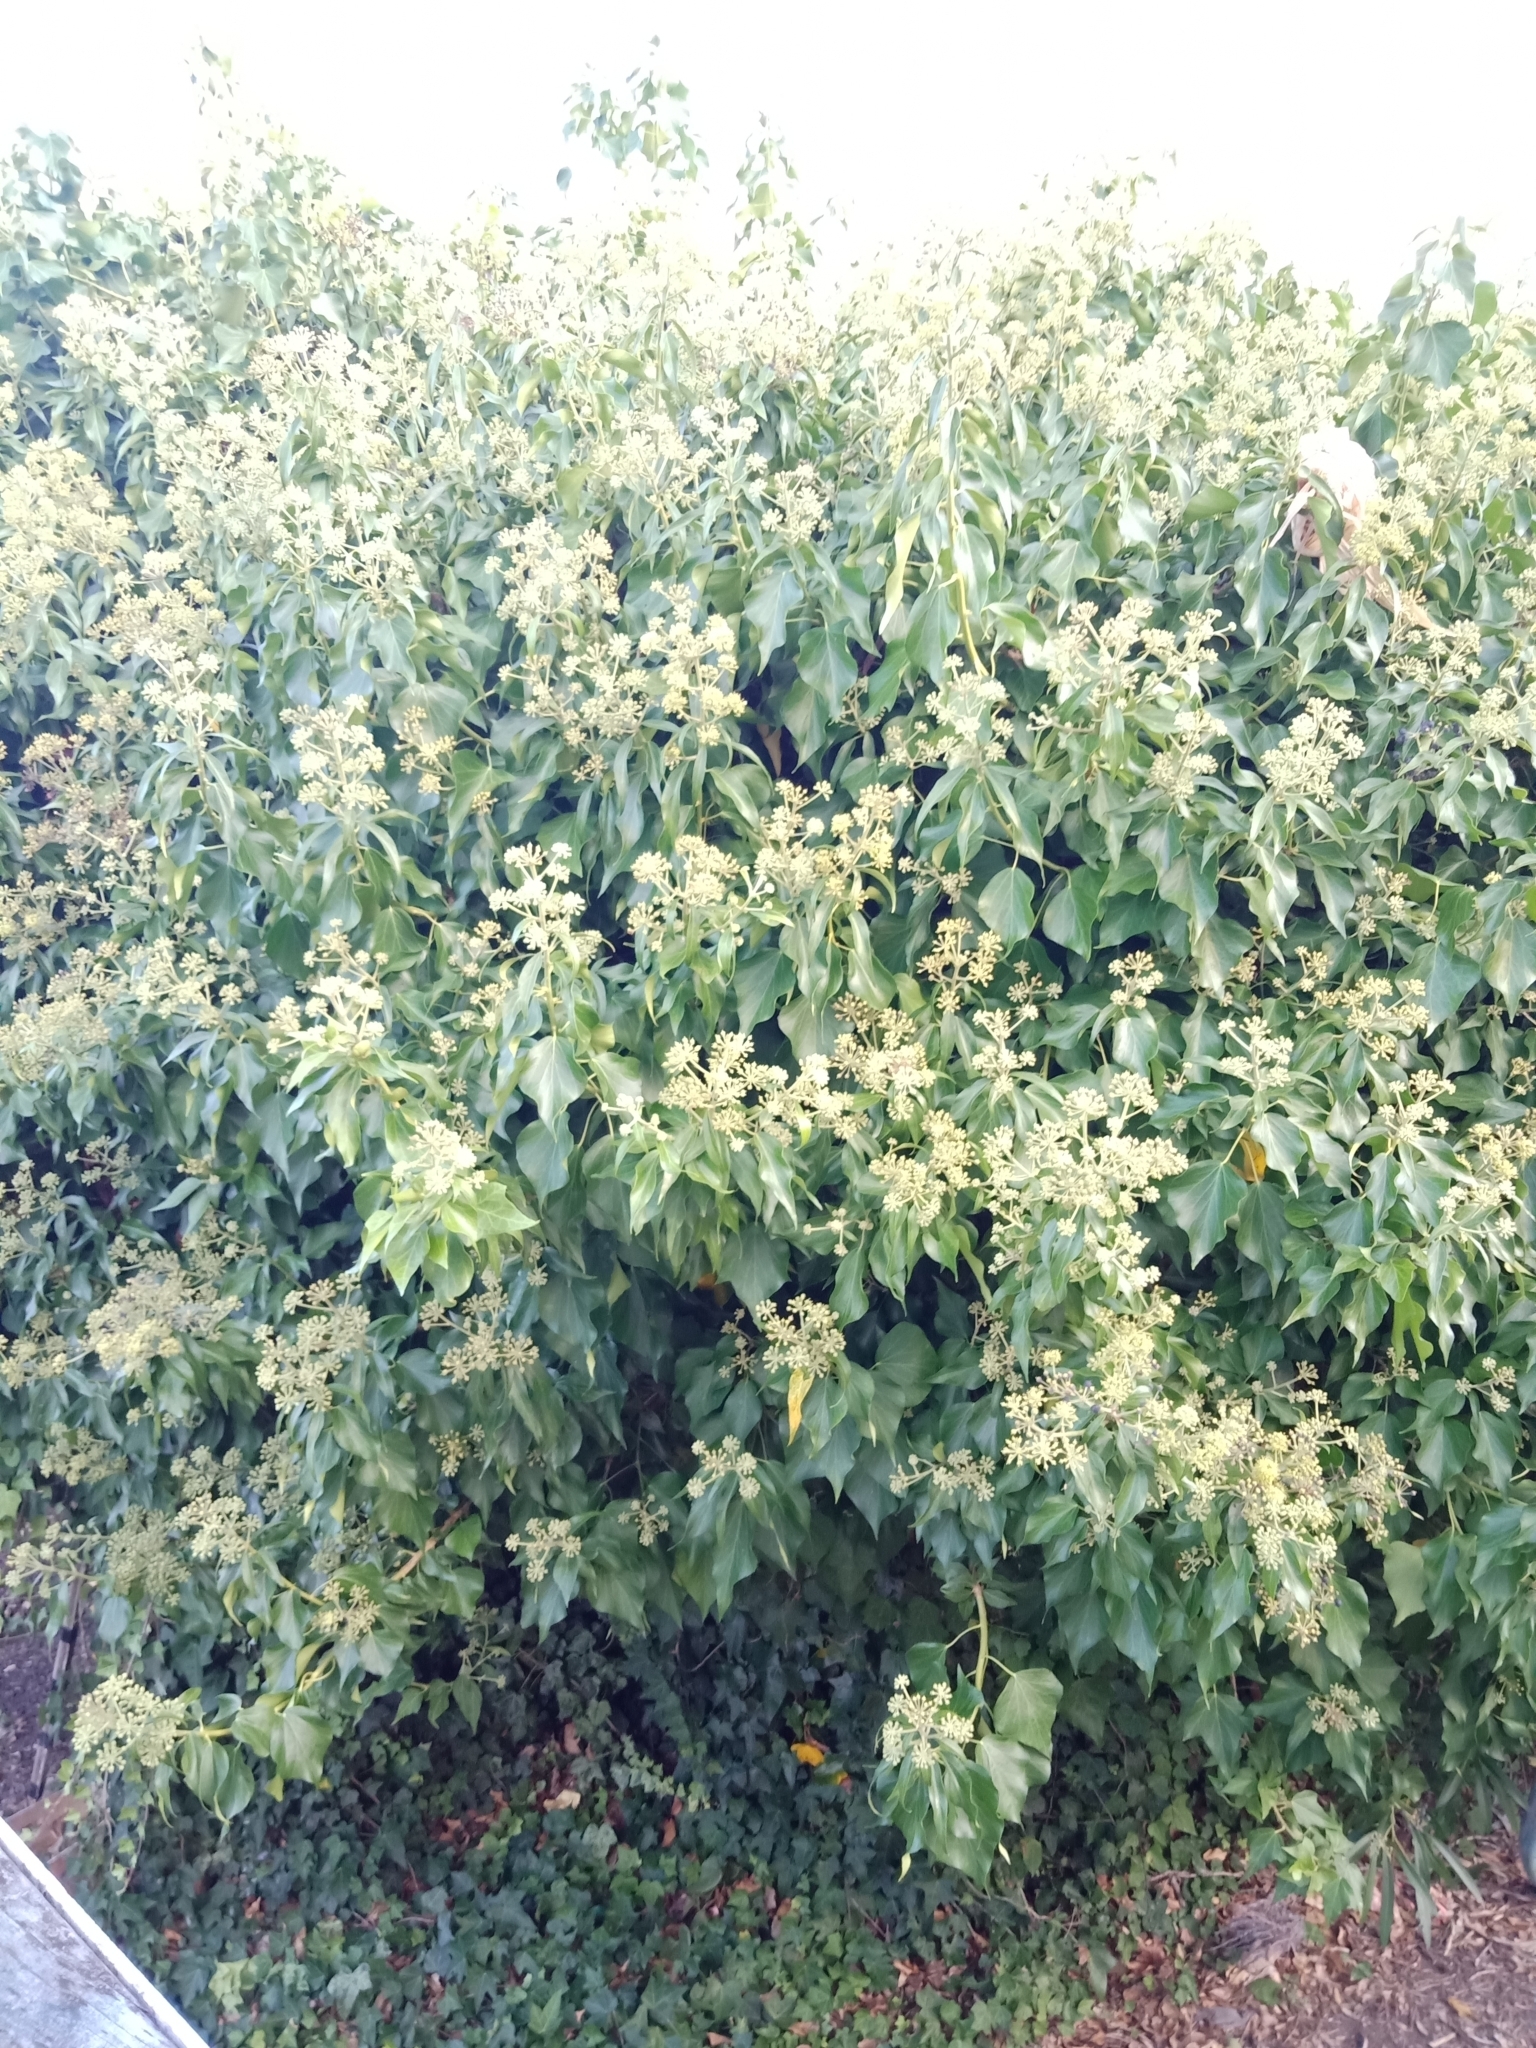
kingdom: Plantae
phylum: Tracheophyta
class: Magnoliopsida
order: Apiales
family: Araliaceae
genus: Hedera
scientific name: Hedera helix
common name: Ivy
